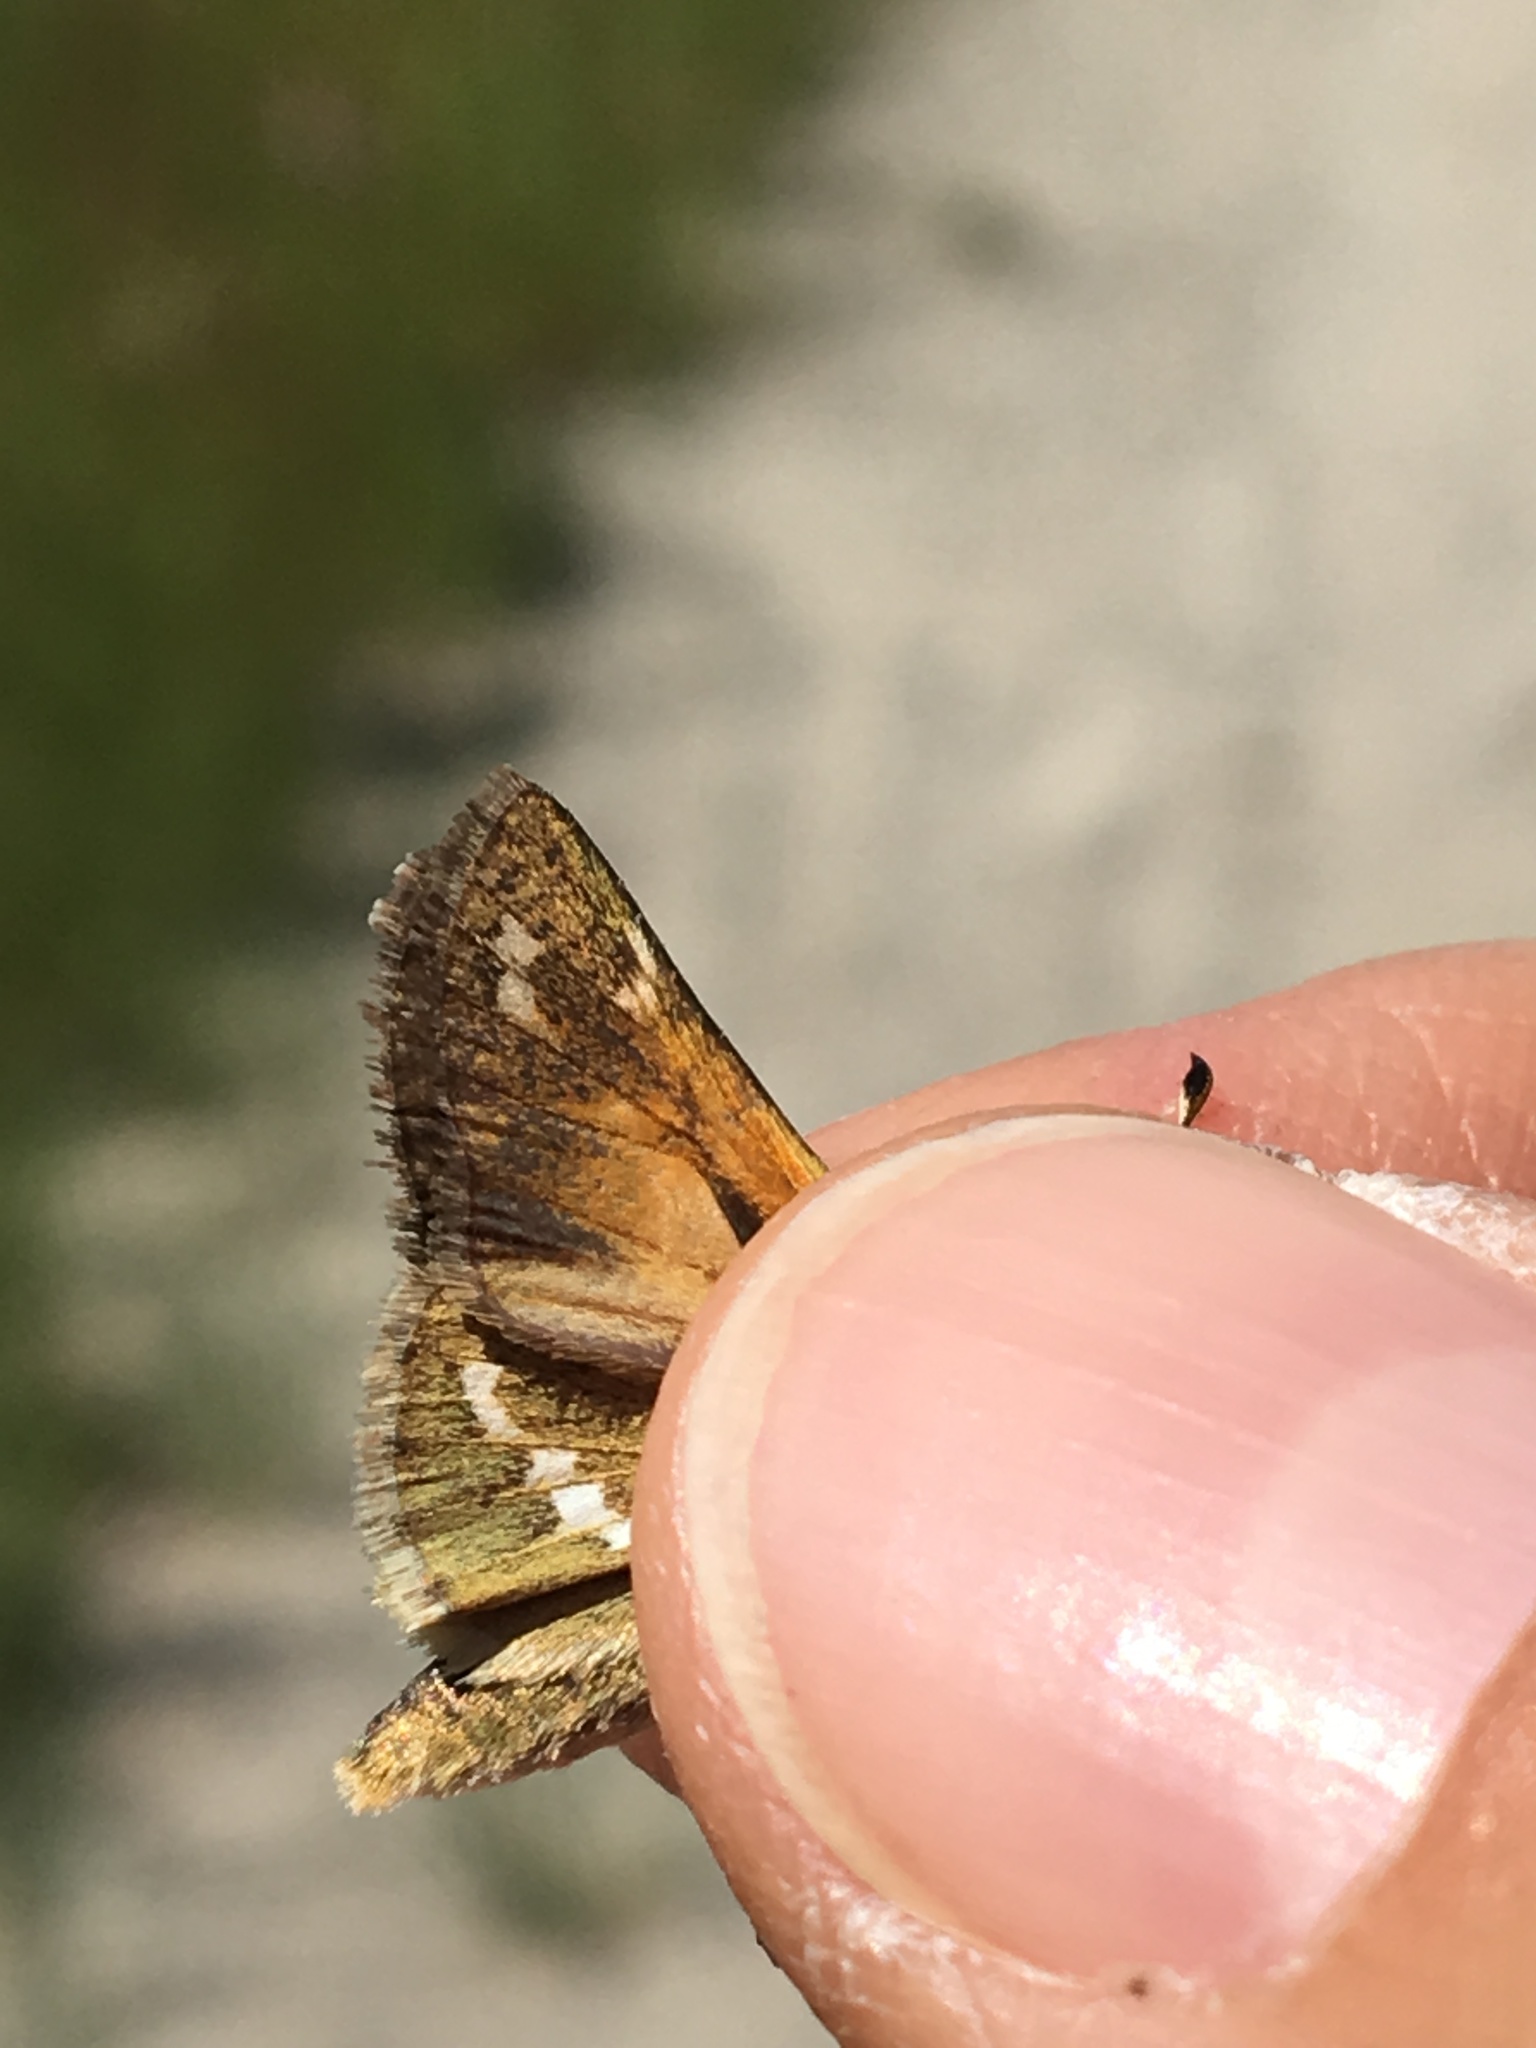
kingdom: Animalia
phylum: Arthropoda
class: Insecta
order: Lepidoptera
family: Hesperiidae
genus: Hesperia
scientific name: Hesperia comma
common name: Common branded skipper
